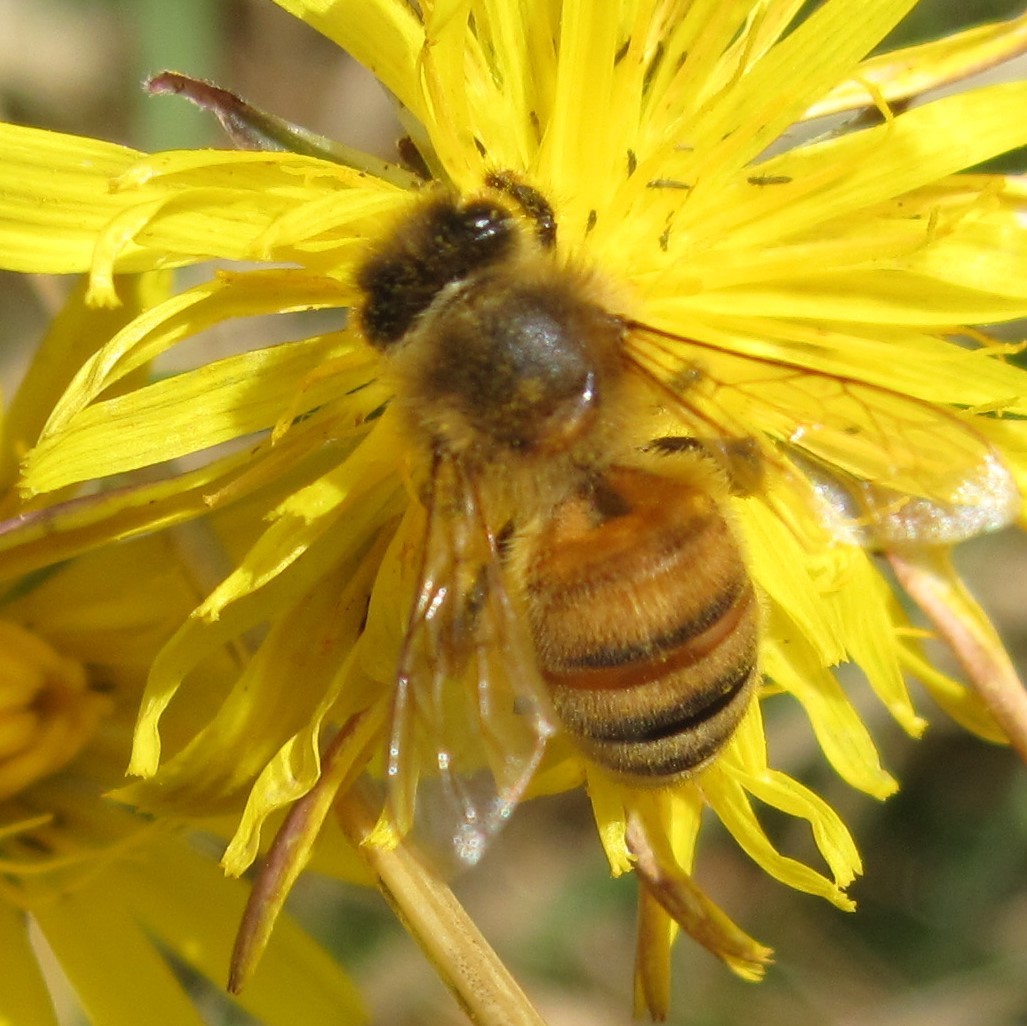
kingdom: Animalia
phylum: Arthropoda
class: Insecta
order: Hymenoptera
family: Apidae
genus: Apis
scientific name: Apis mellifera
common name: Honey bee
